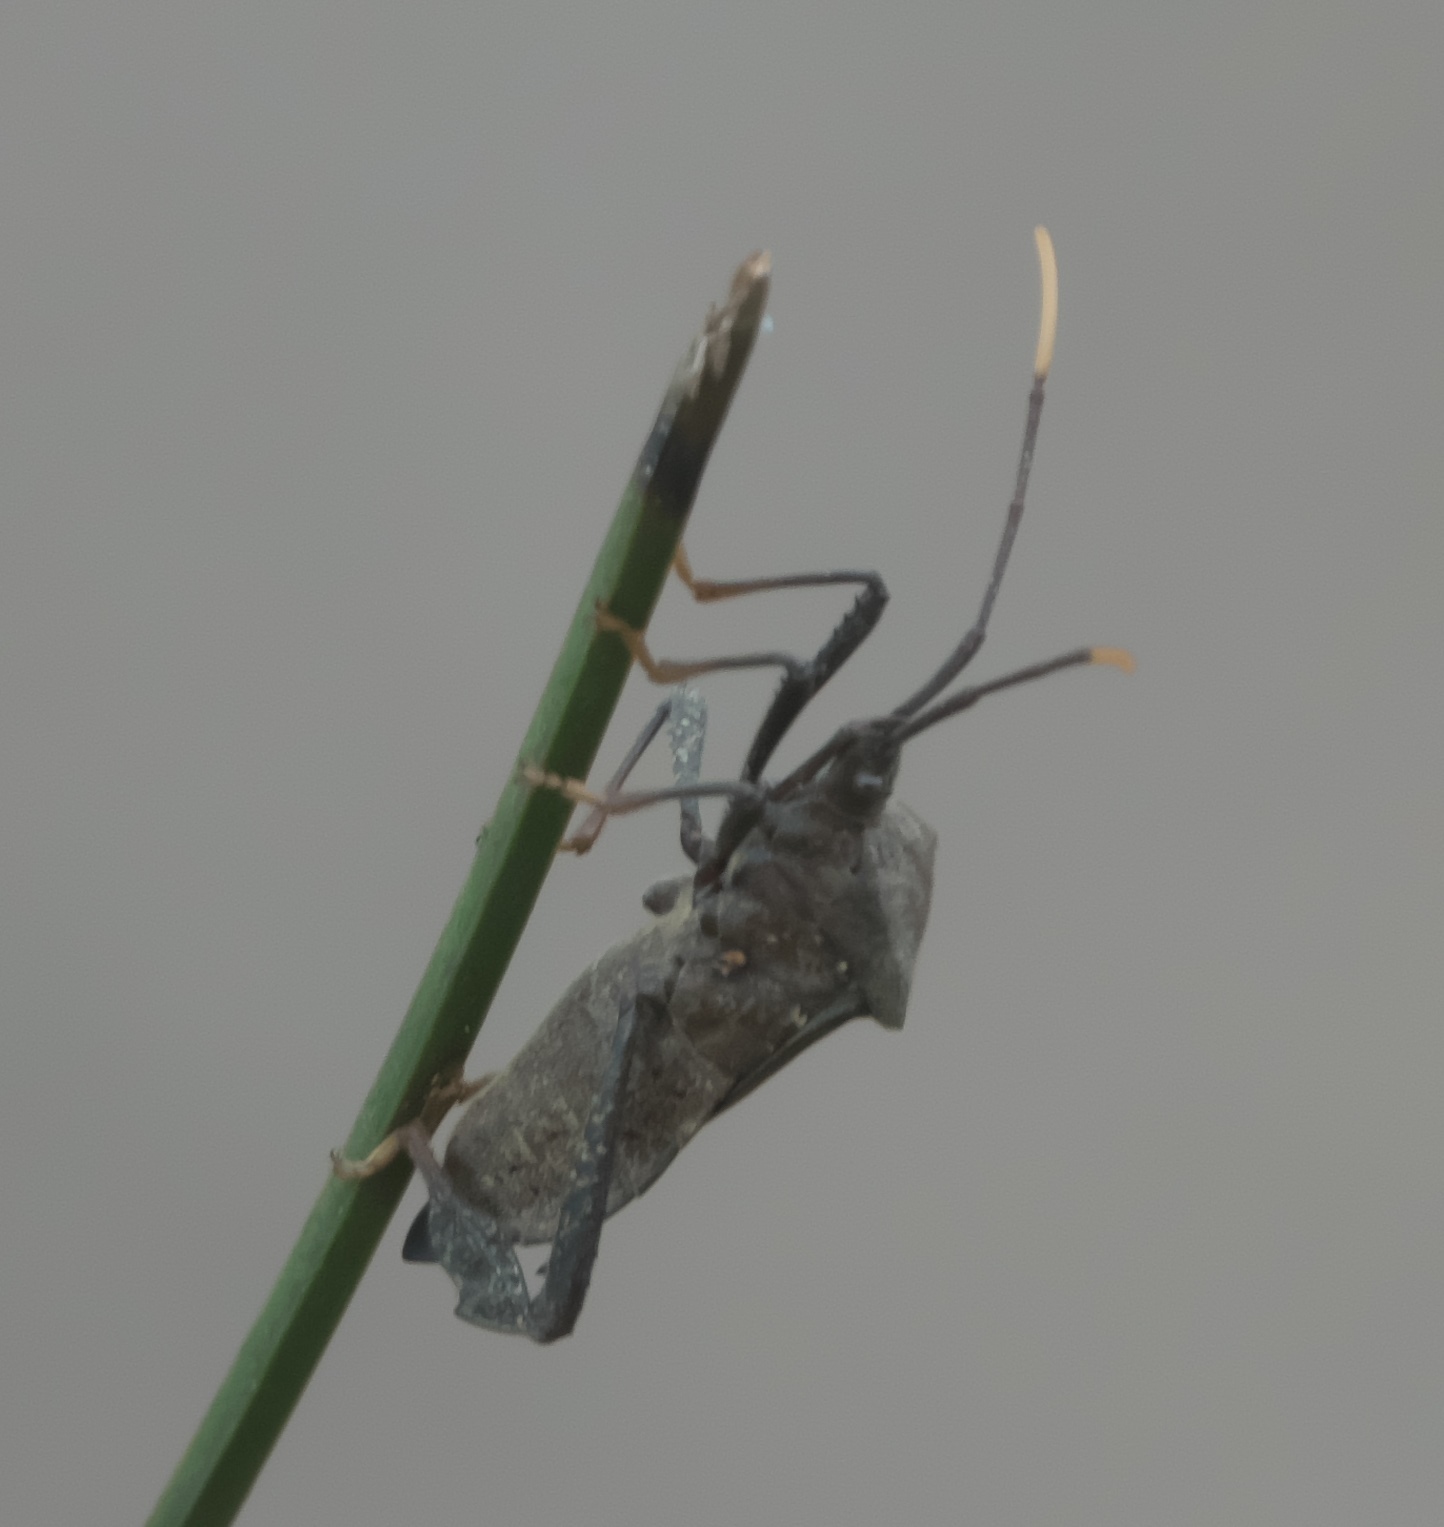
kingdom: Animalia
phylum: Arthropoda
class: Insecta
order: Hemiptera
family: Coreidae
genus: Acanthocephala
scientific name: Acanthocephala terminalis
